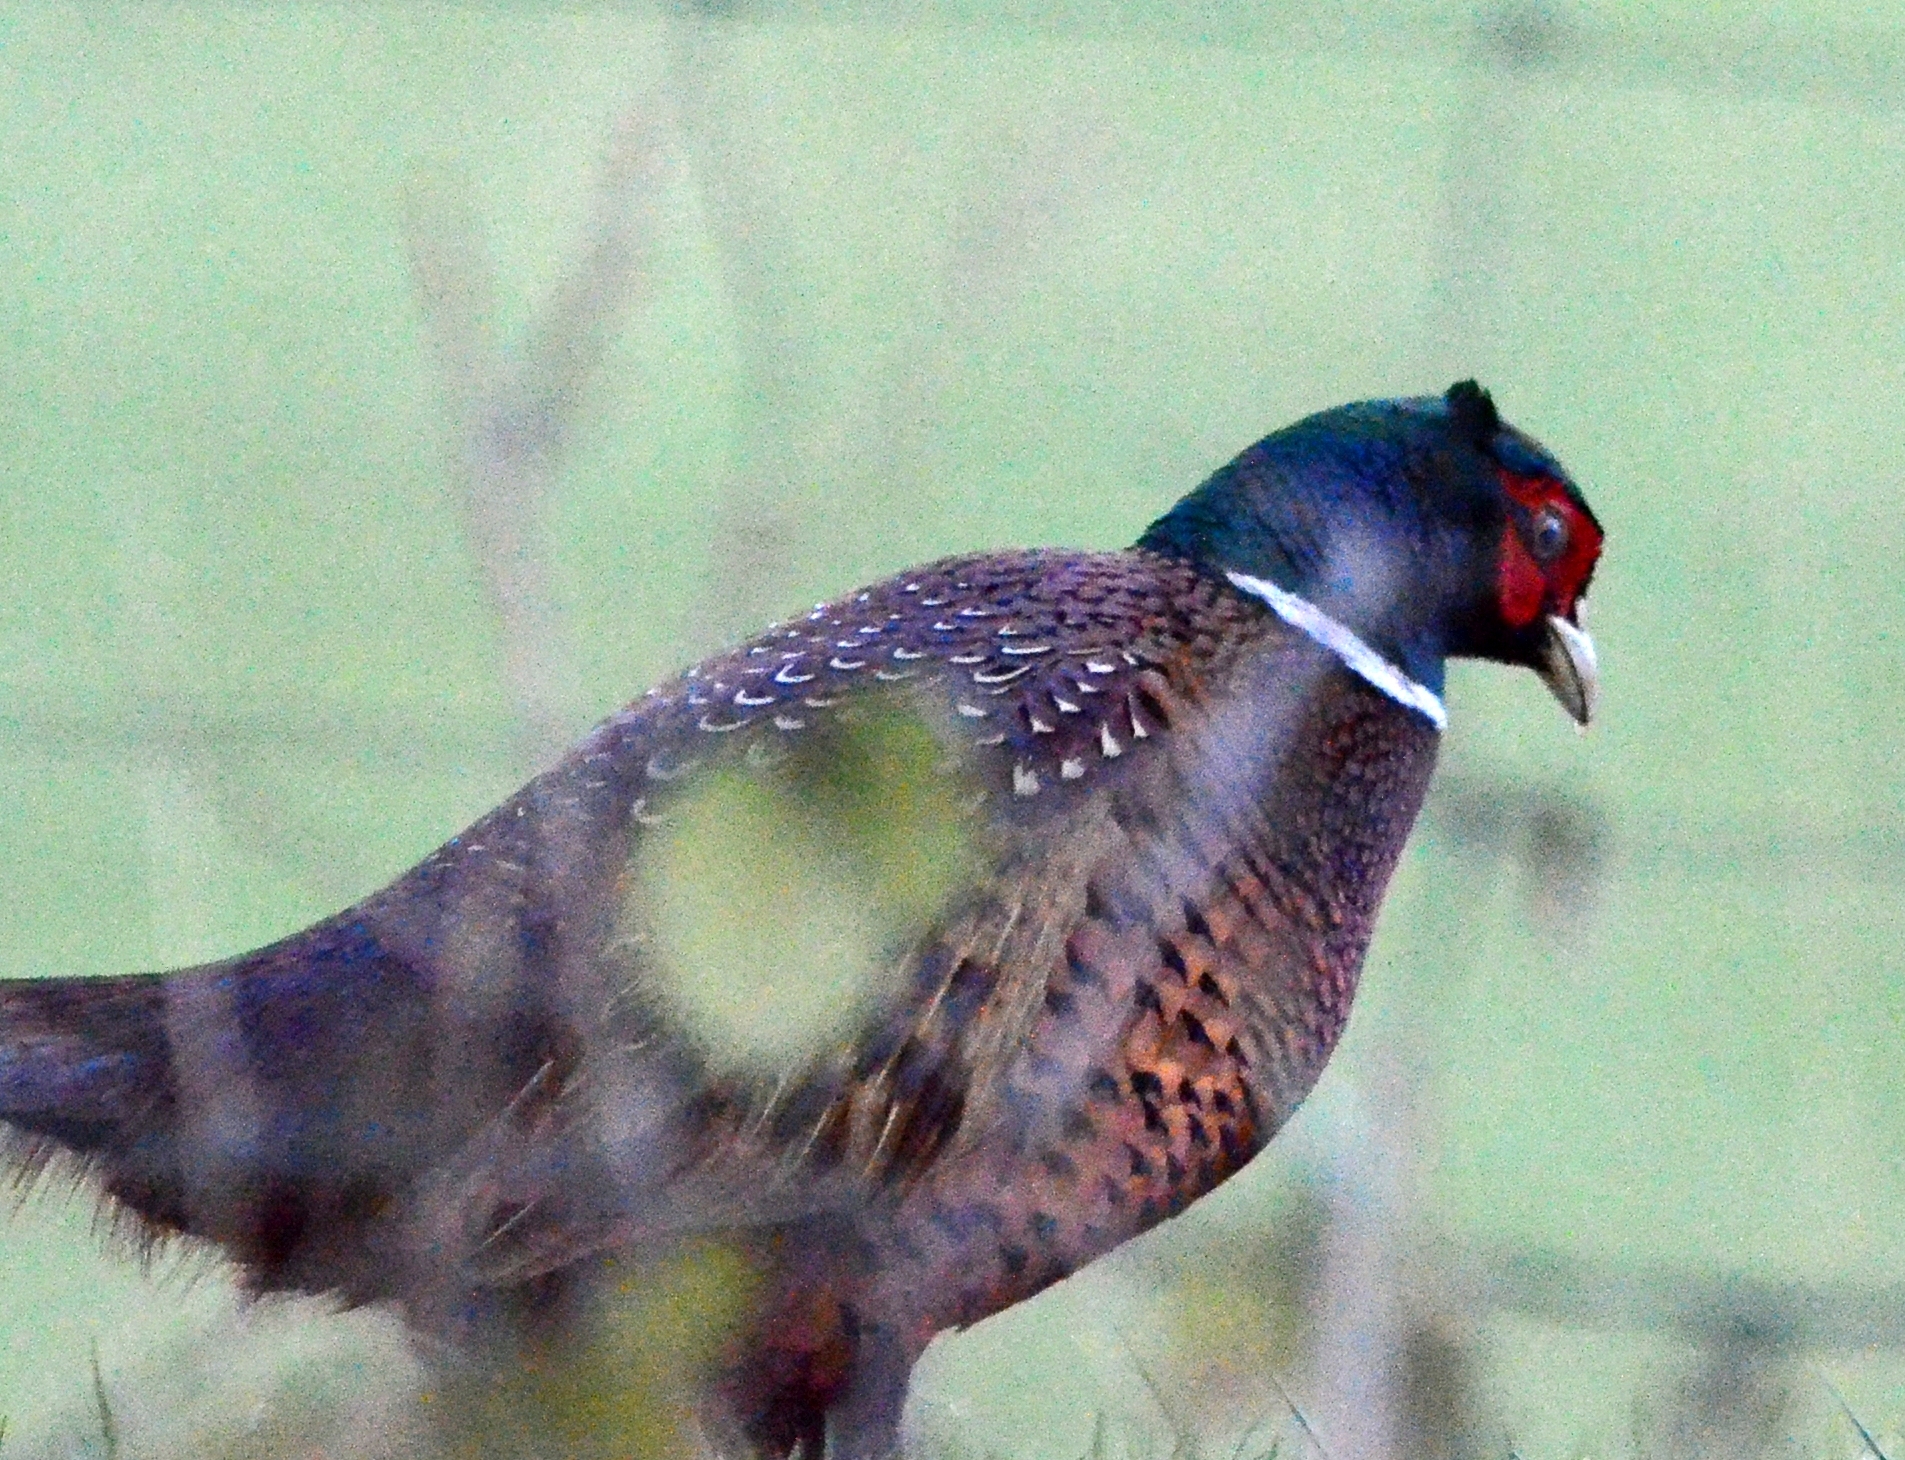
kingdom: Animalia
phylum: Chordata
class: Aves
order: Galliformes
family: Phasianidae
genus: Phasianus
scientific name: Phasianus colchicus
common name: Common pheasant
